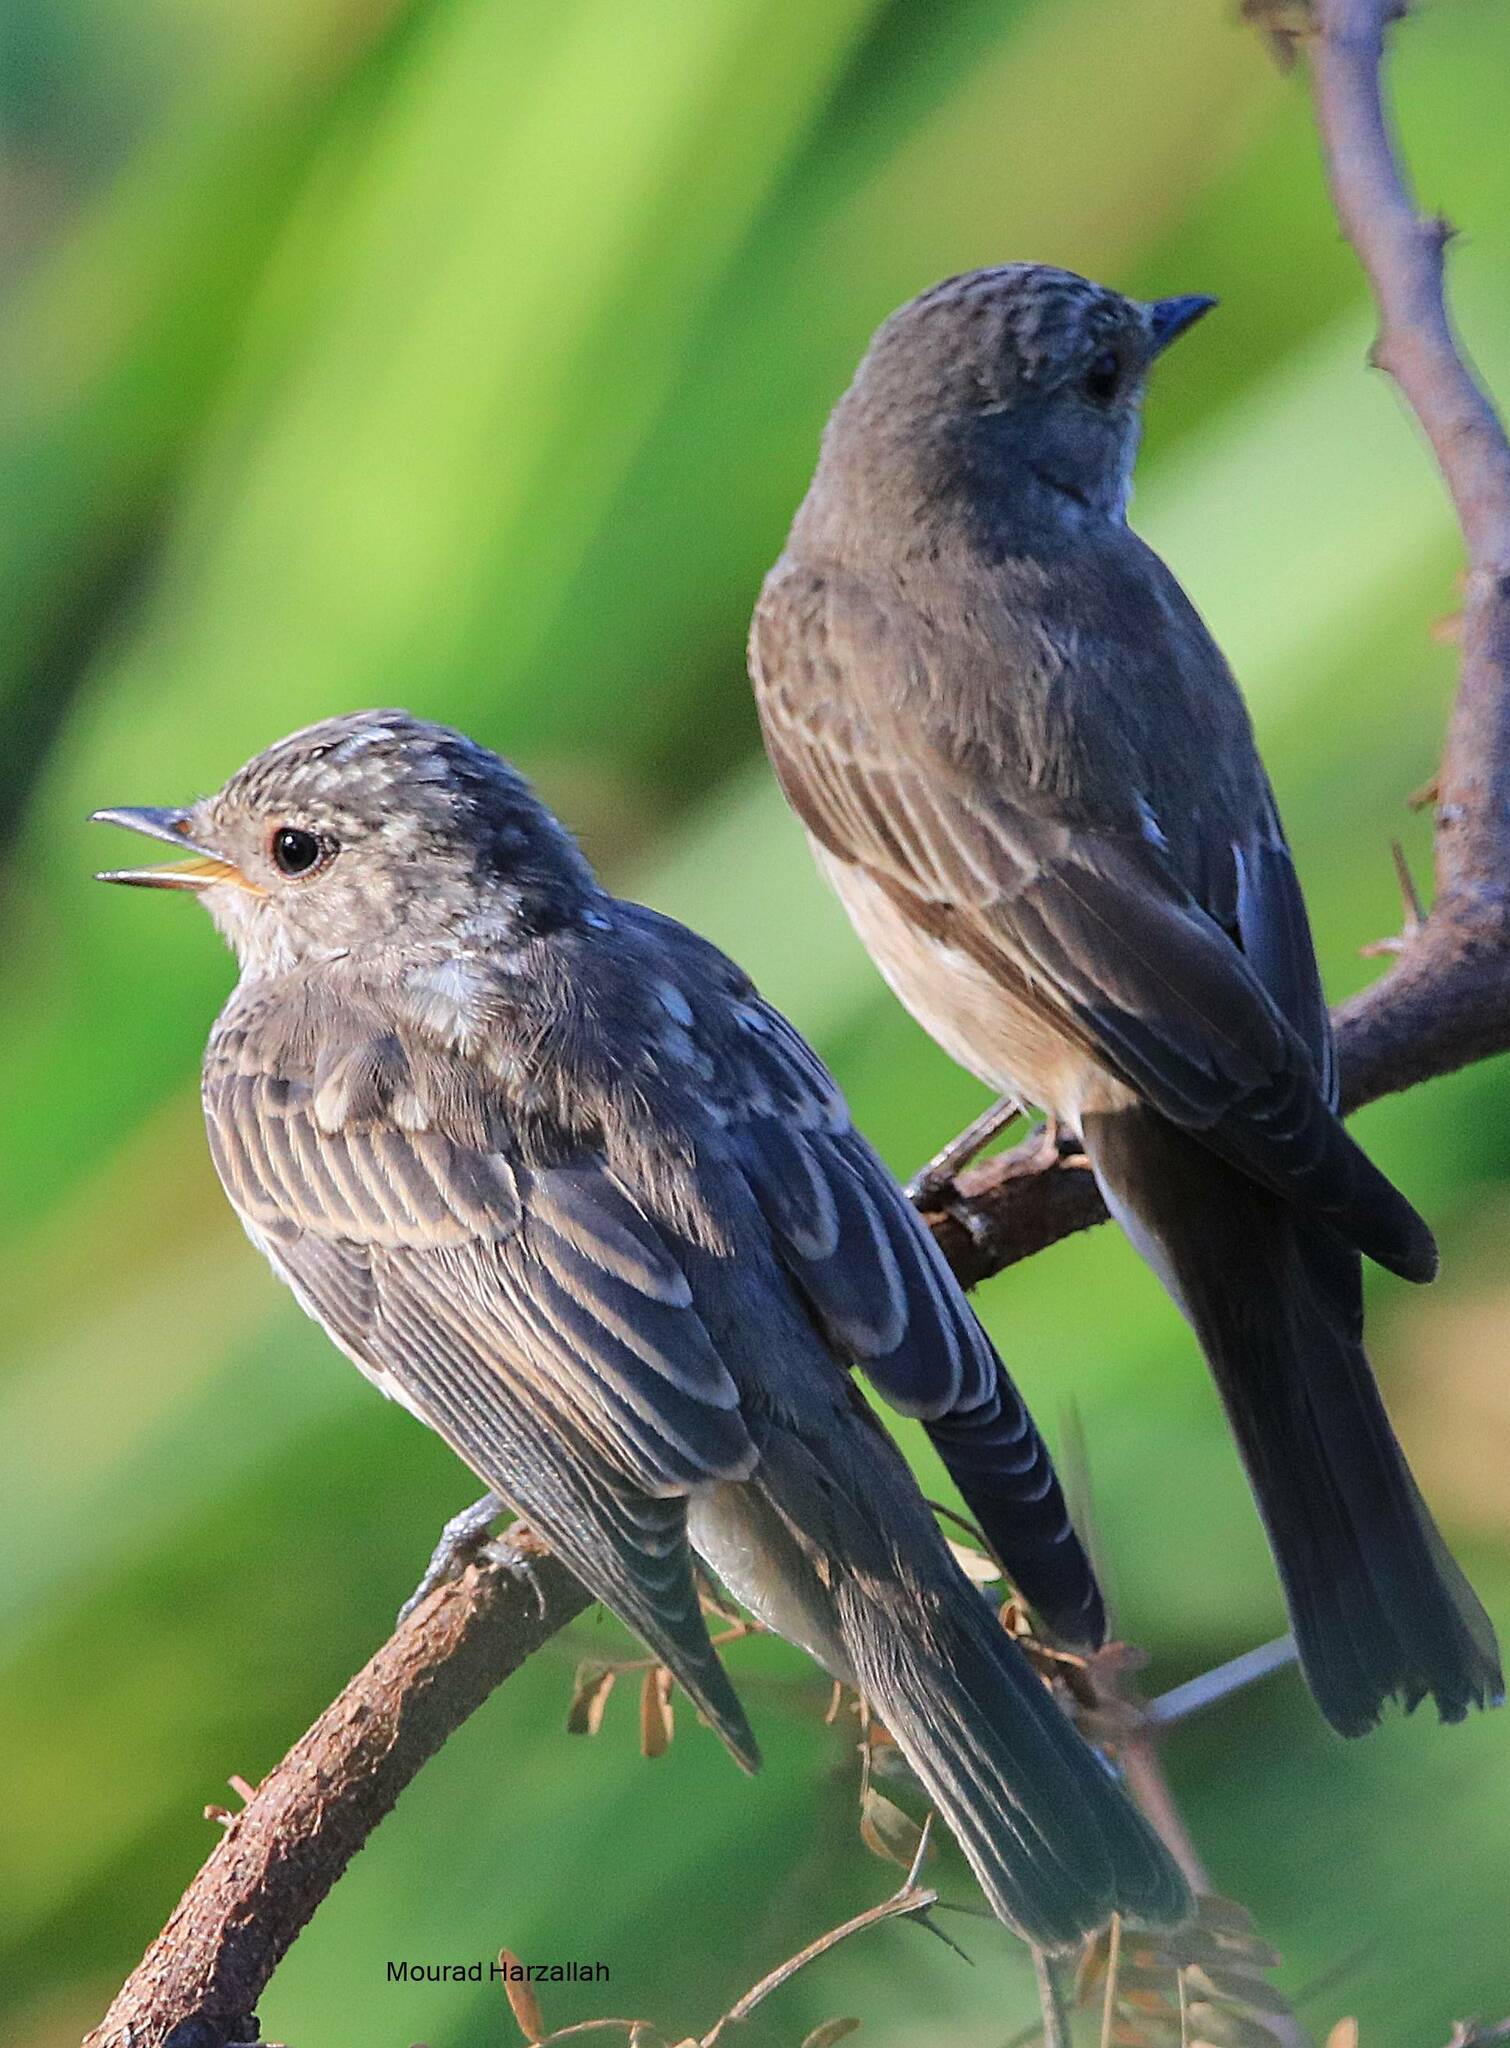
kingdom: Animalia
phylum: Chordata
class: Aves
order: Passeriformes
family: Muscicapidae
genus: Muscicapa
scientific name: Muscicapa striata
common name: Spotted flycatcher
